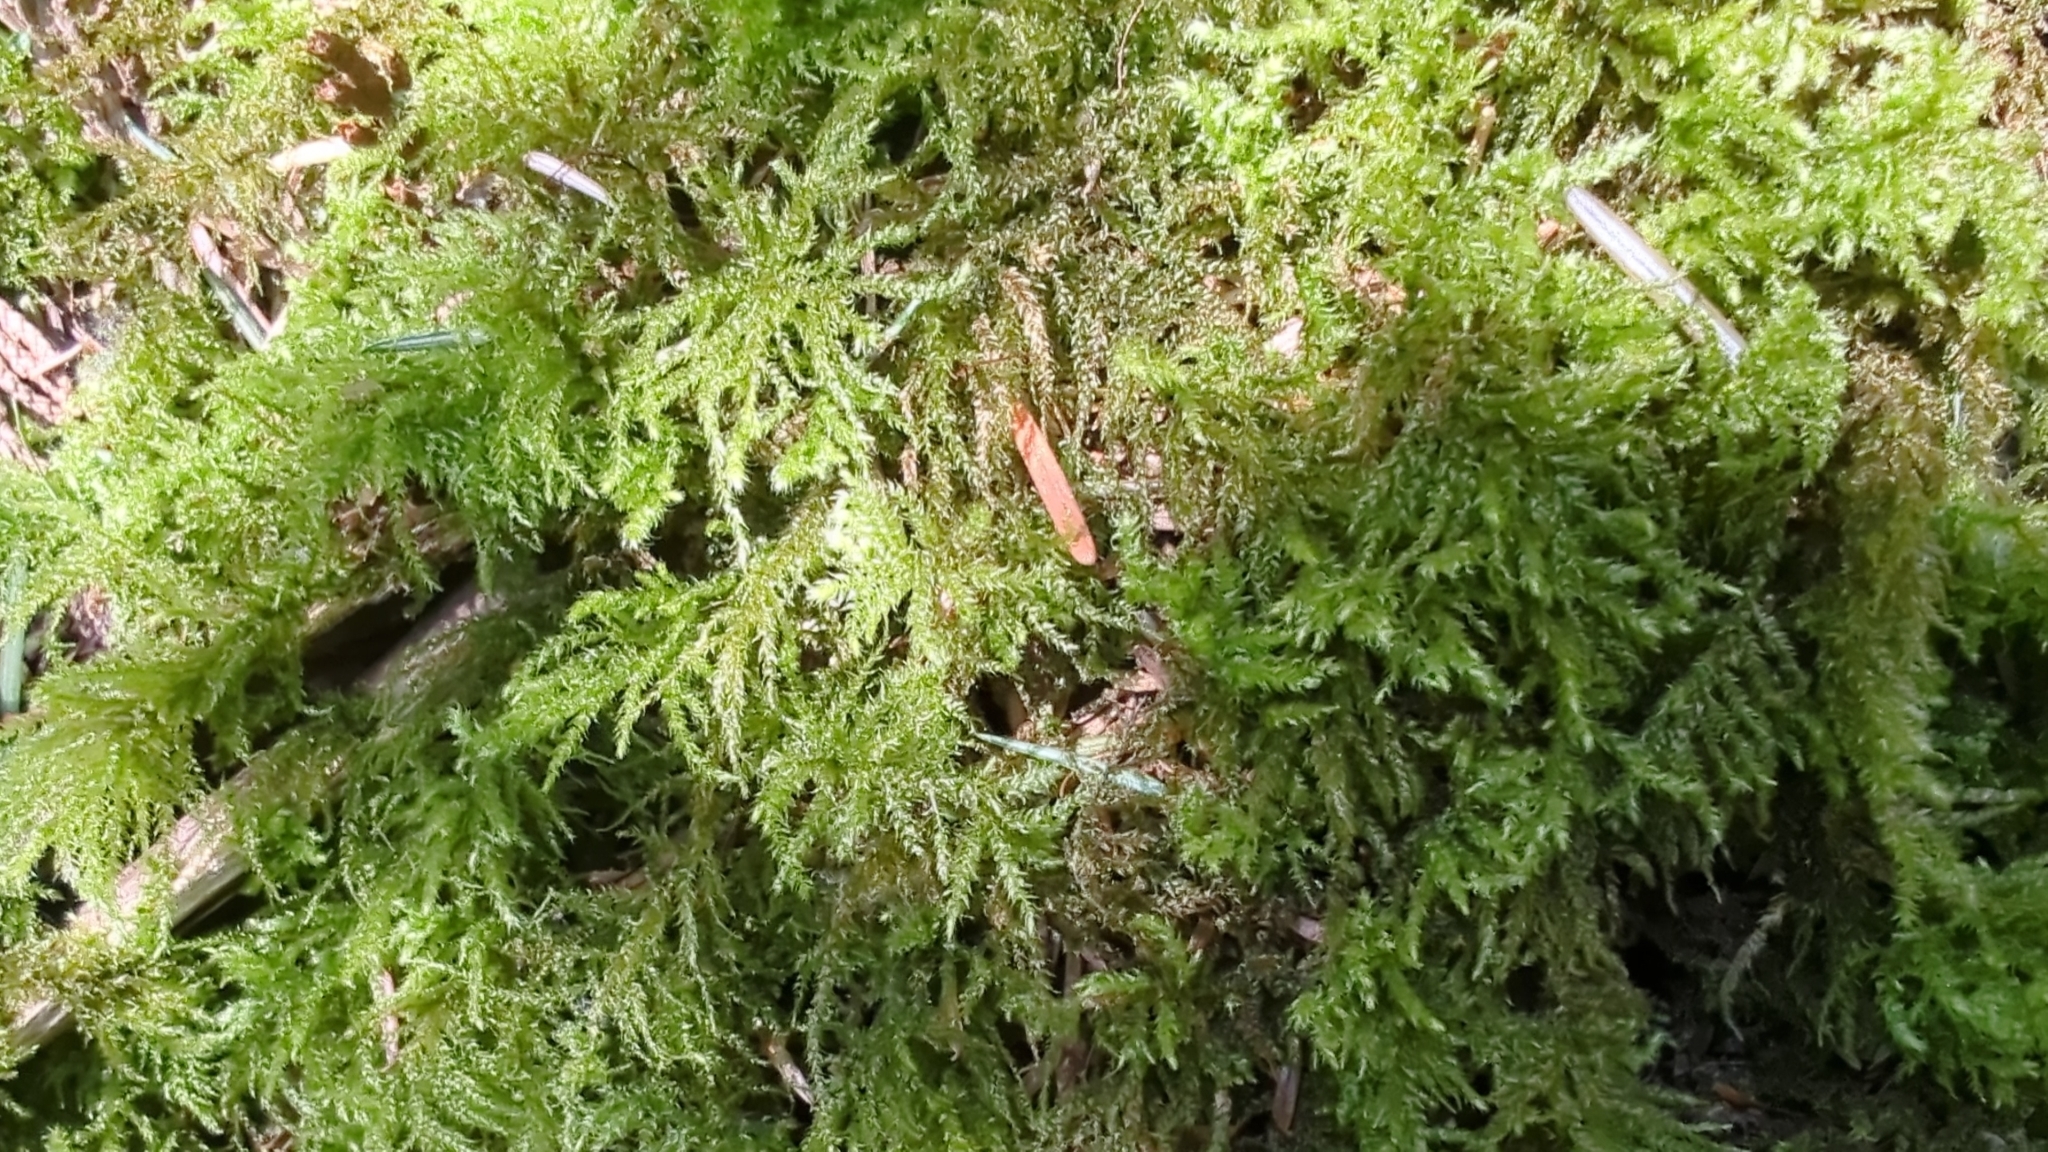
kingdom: Plantae
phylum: Bryophyta
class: Bryopsida
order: Hypnales
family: Brachytheciaceae
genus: Kindbergia
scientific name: Kindbergia praelonga
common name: Slender beaked moss
